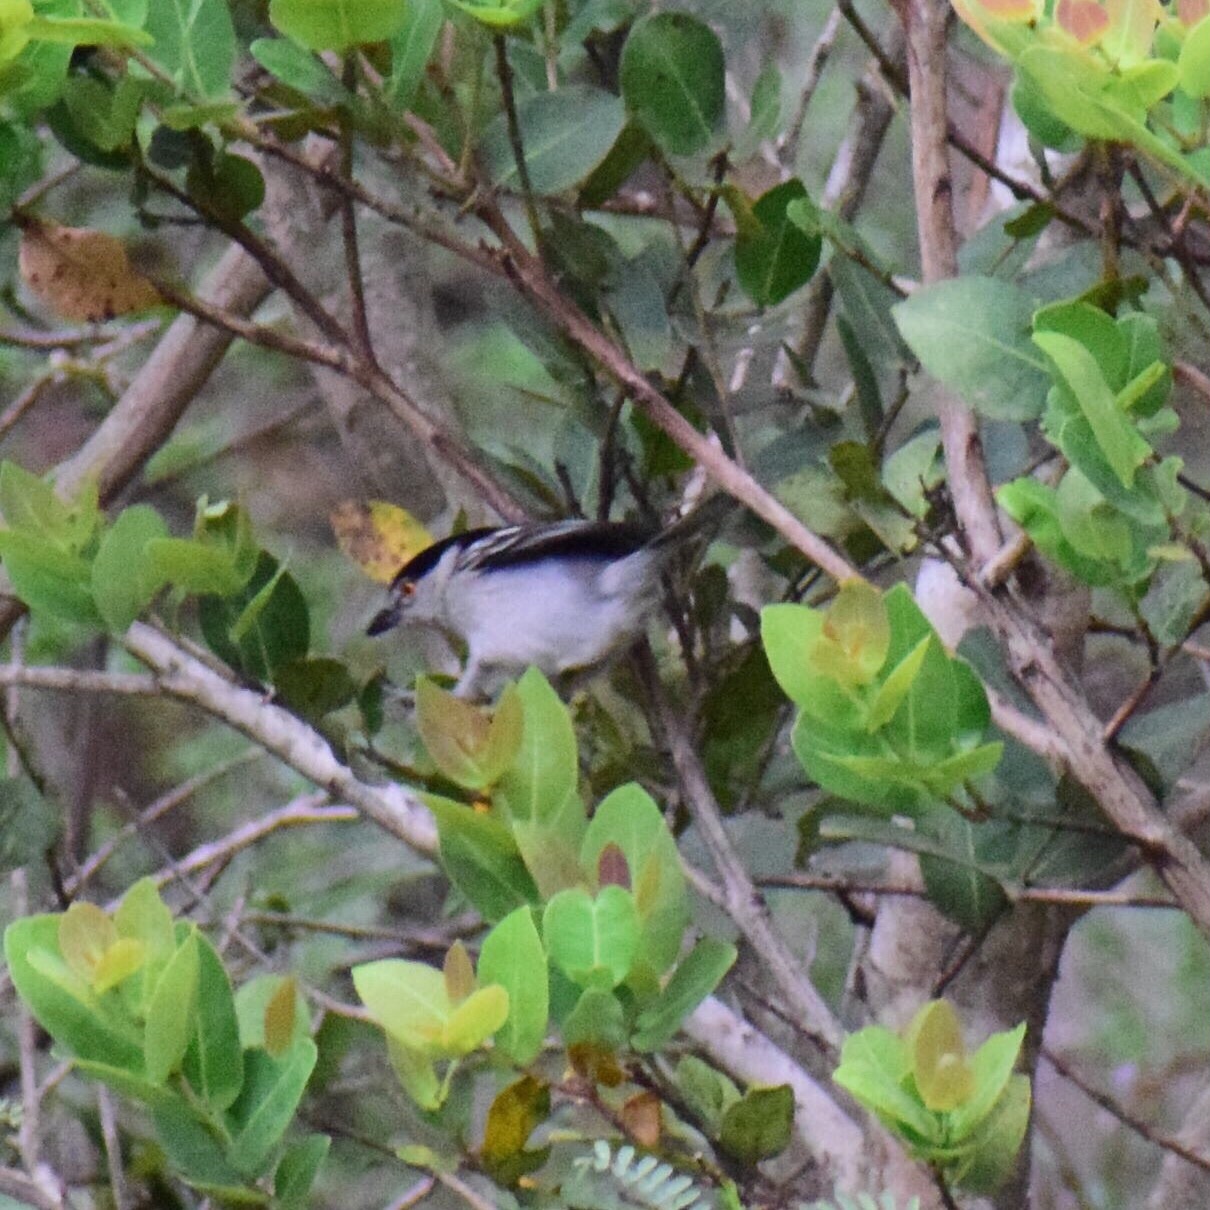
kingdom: Animalia
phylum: Chordata
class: Aves
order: Passeriformes
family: Malaconotidae
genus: Dryoscopus
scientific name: Dryoscopus cubla
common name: Black-backed puffback
